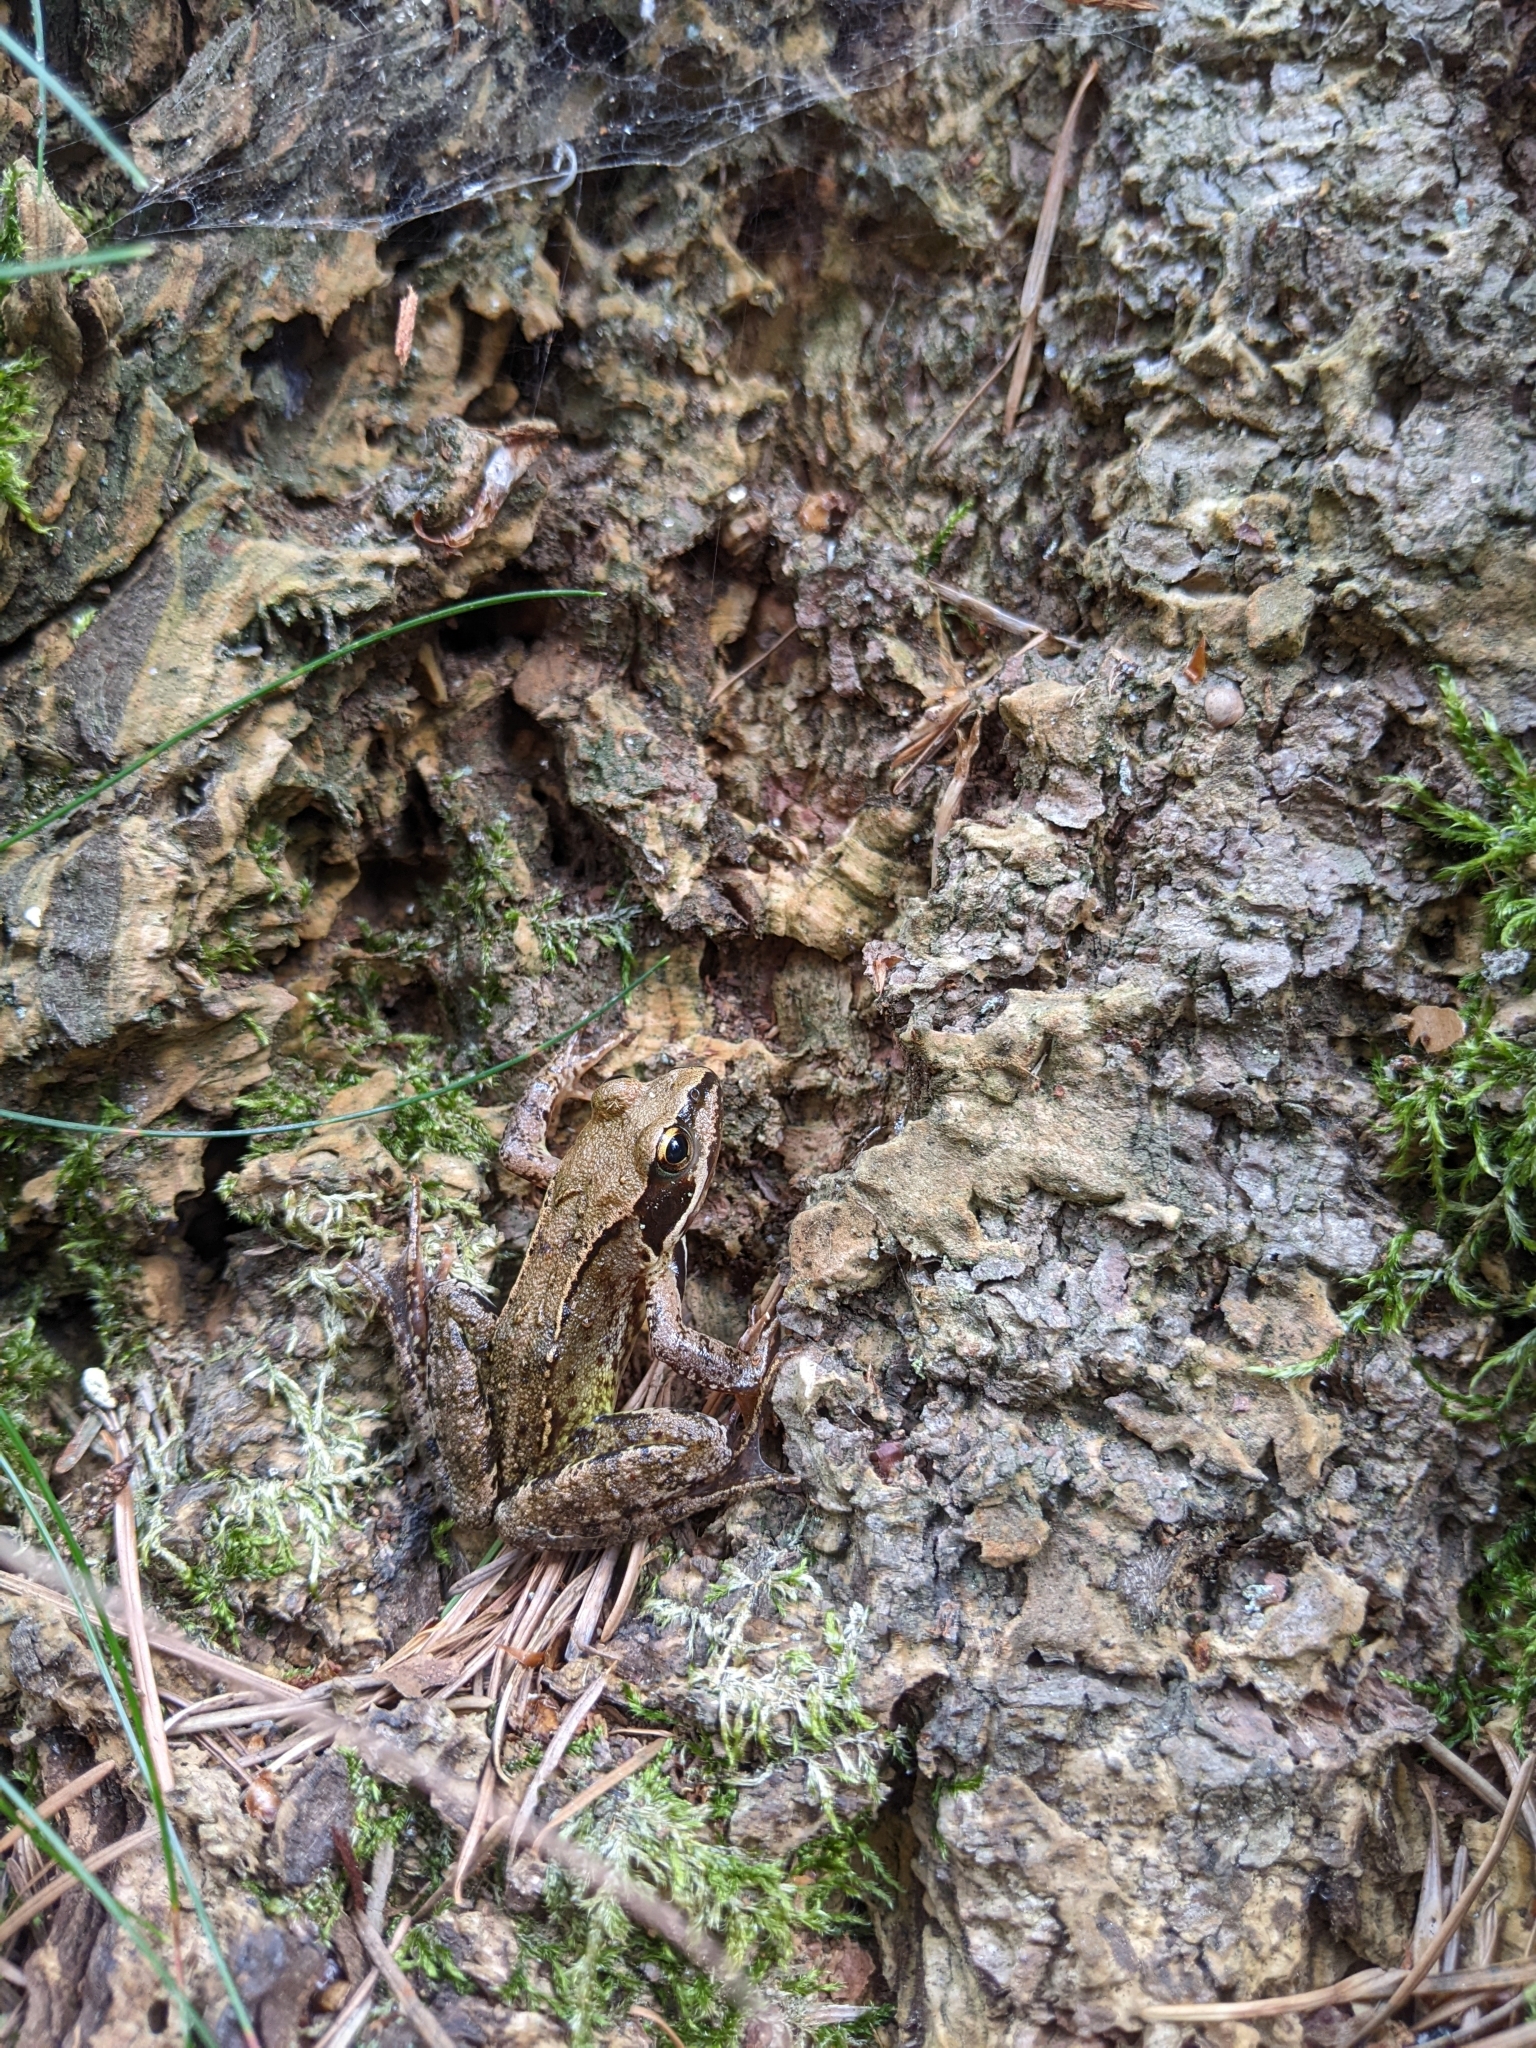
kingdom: Animalia
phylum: Chordata
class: Amphibia
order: Anura
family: Ranidae
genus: Rana
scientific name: Rana temporaria
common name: Common frog
